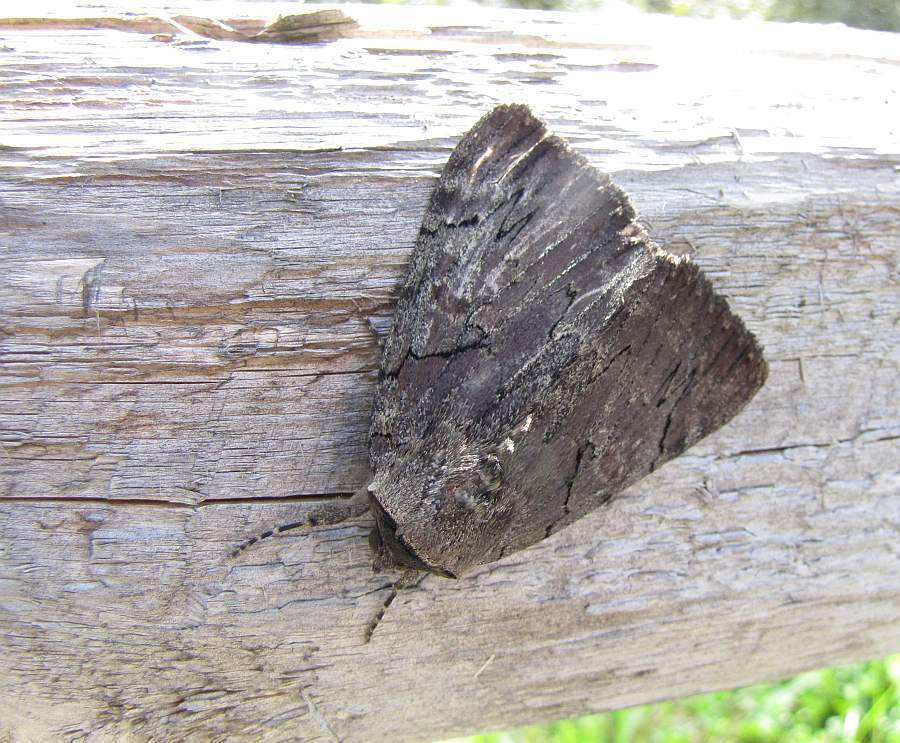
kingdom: Animalia
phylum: Arthropoda
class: Insecta
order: Lepidoptera
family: Erebidae
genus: Catocala
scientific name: Catocala cara
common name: Darling underwing
